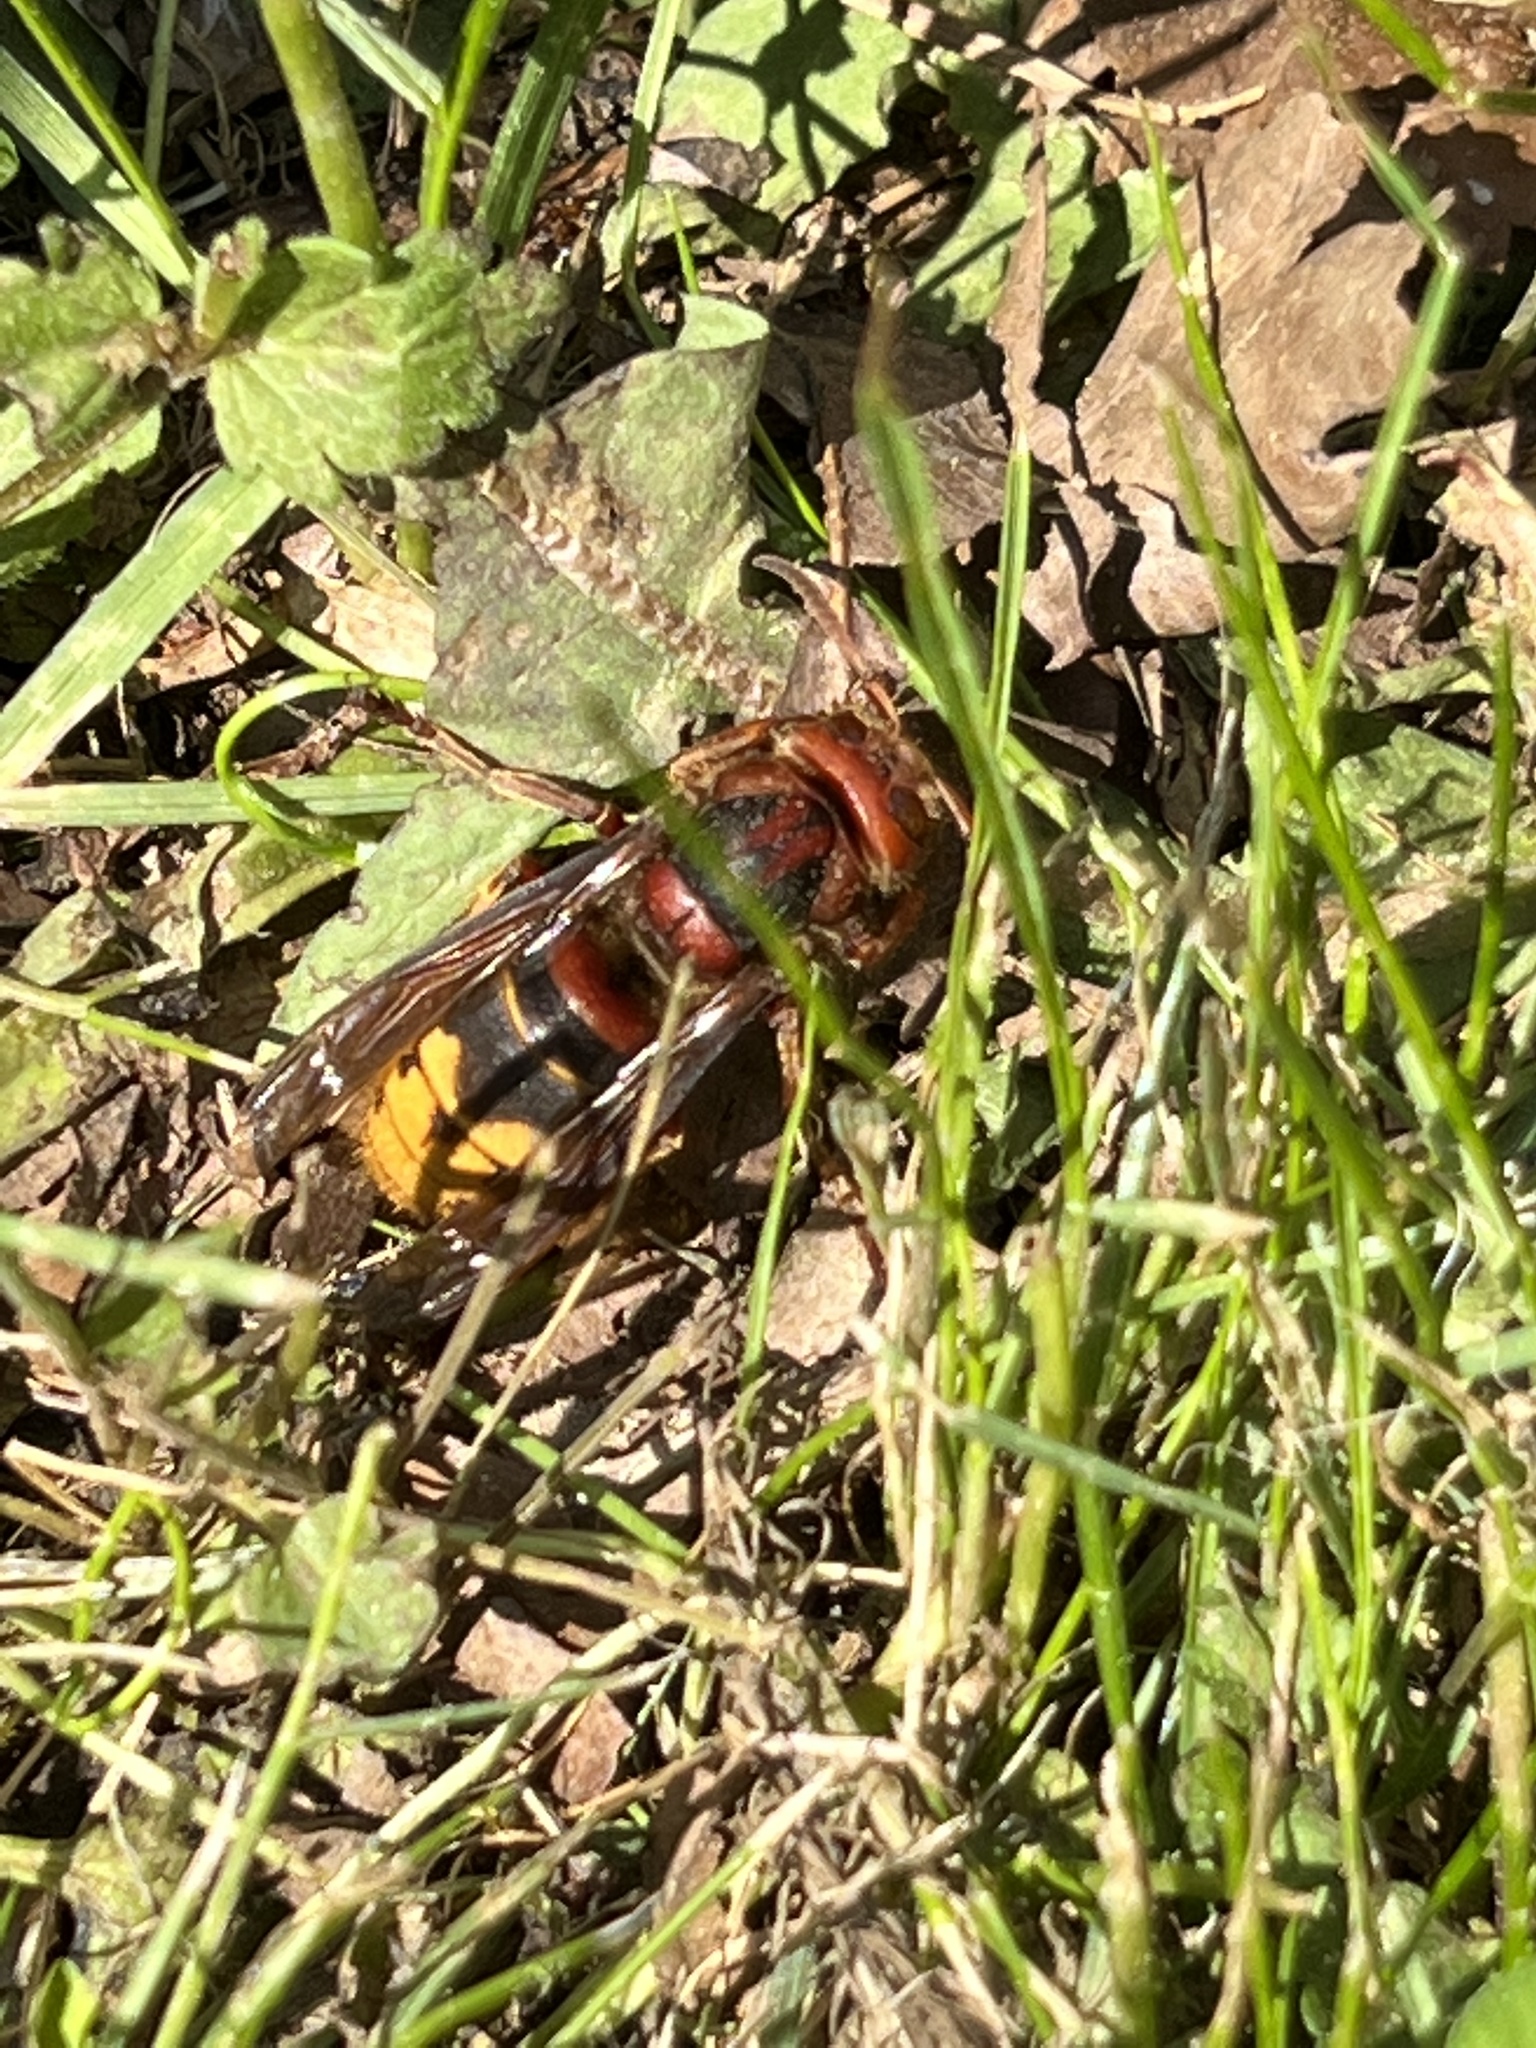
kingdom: Animalia
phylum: Arthropoda
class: Insecta
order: Hymenoptera
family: Vespidae
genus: Vespa
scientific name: Vespa crabro
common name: Hornet
